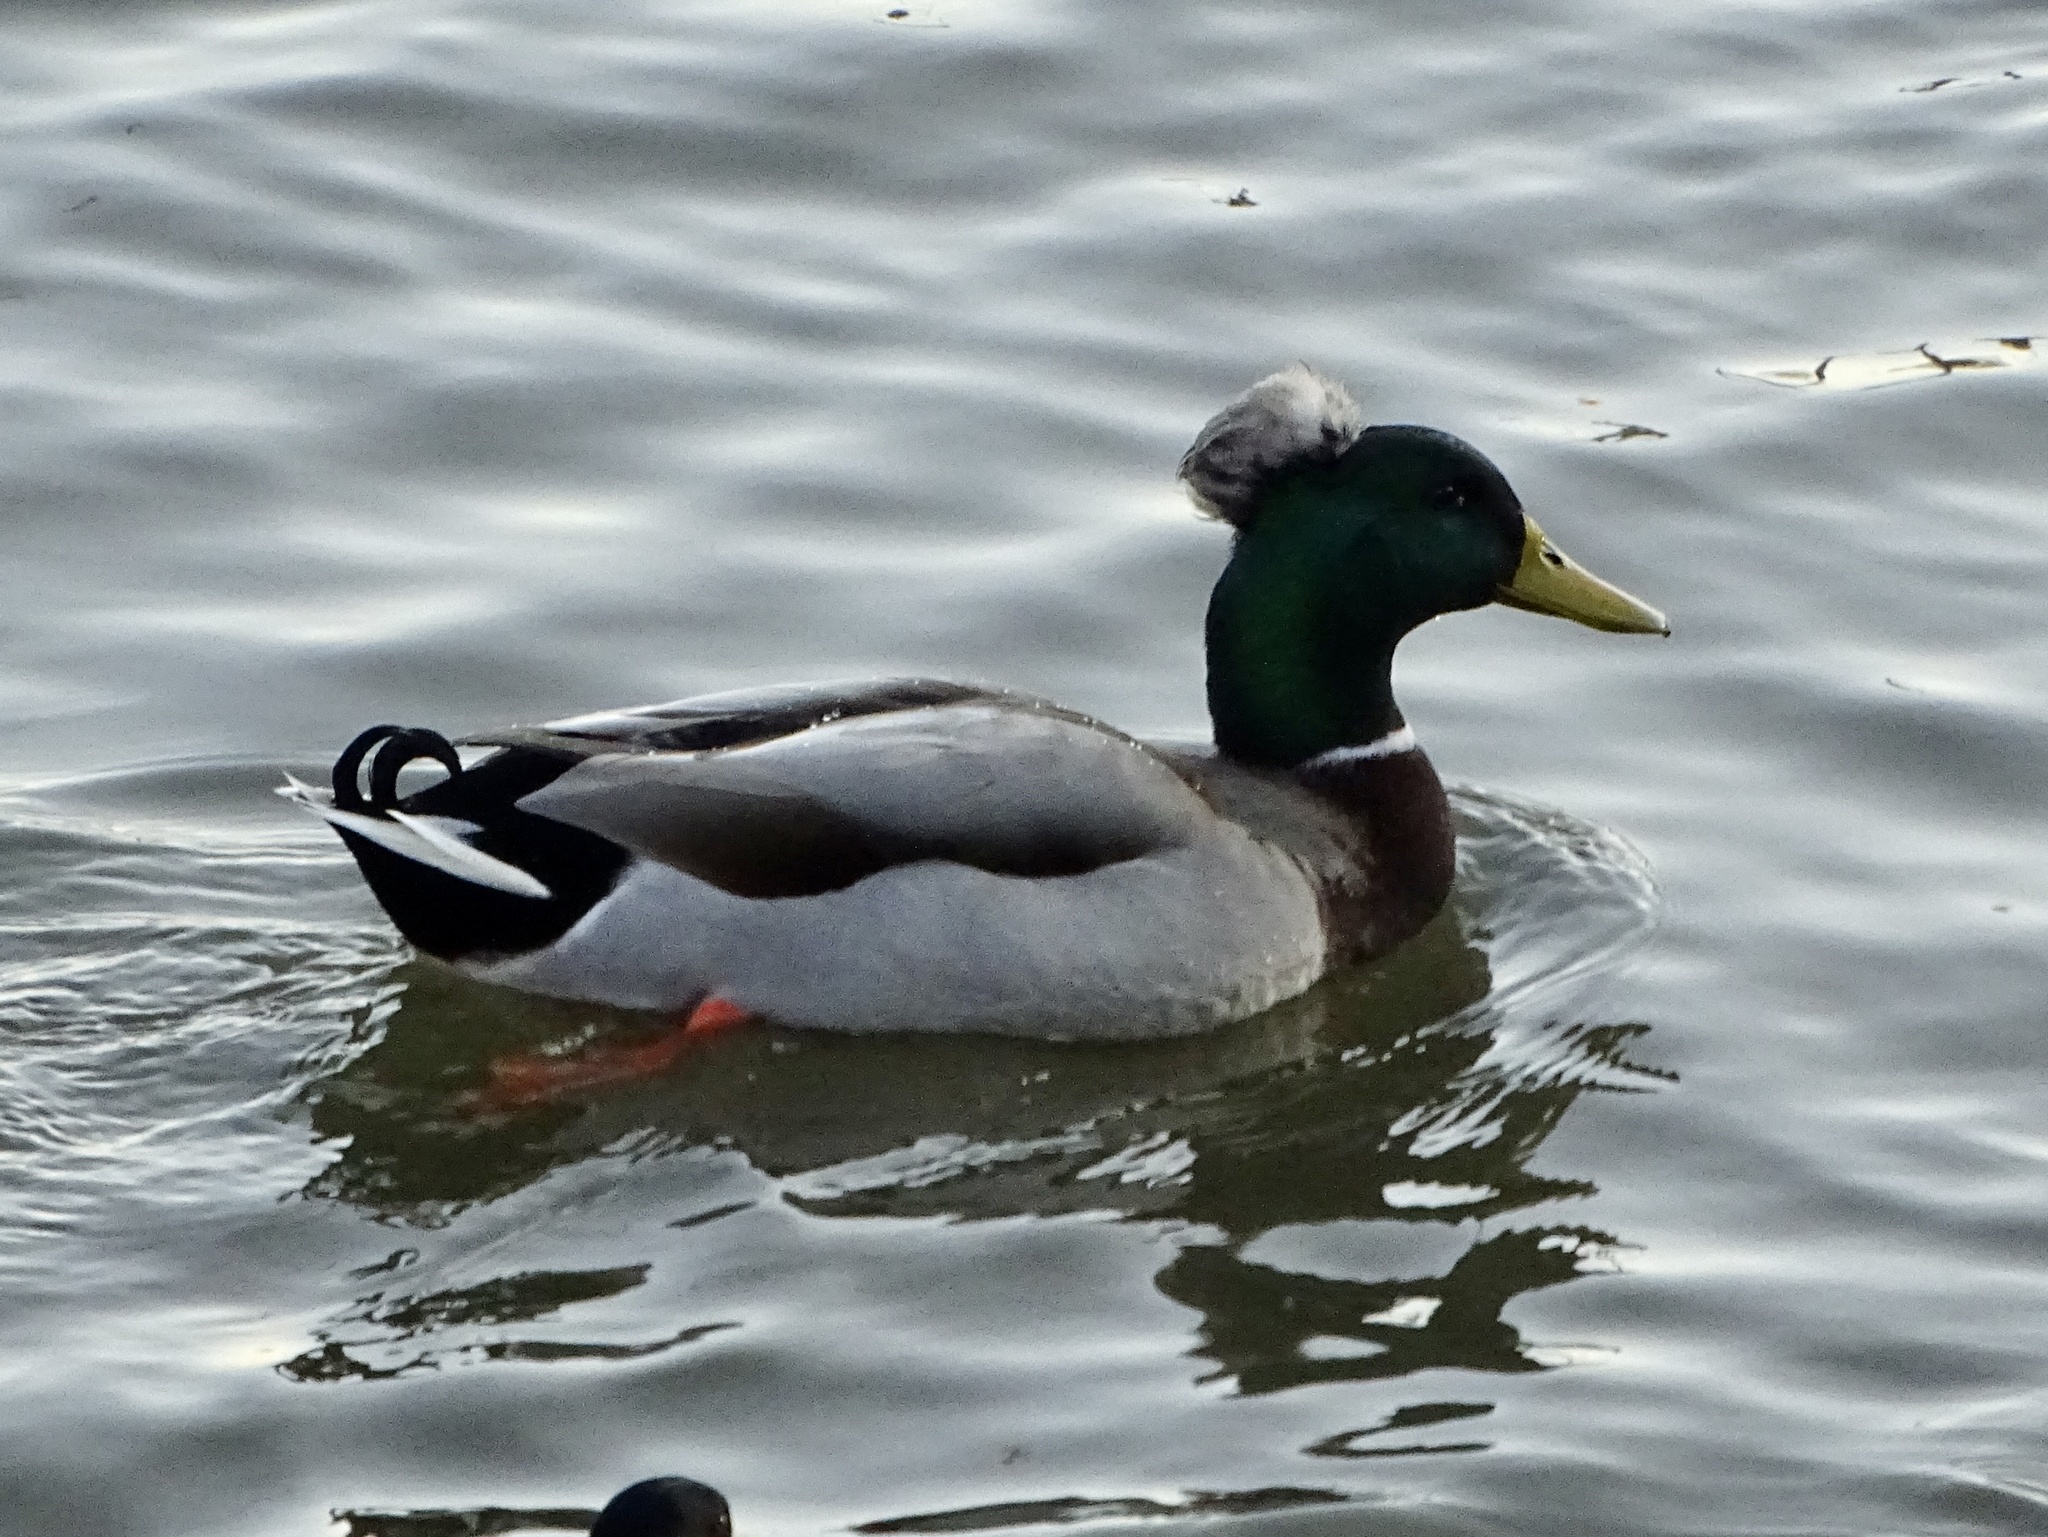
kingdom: Animalia
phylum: Chordata
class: Aves
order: Anseriformes
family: Anatidae
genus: Anas
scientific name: Anas platyrhynchos
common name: Mallard
